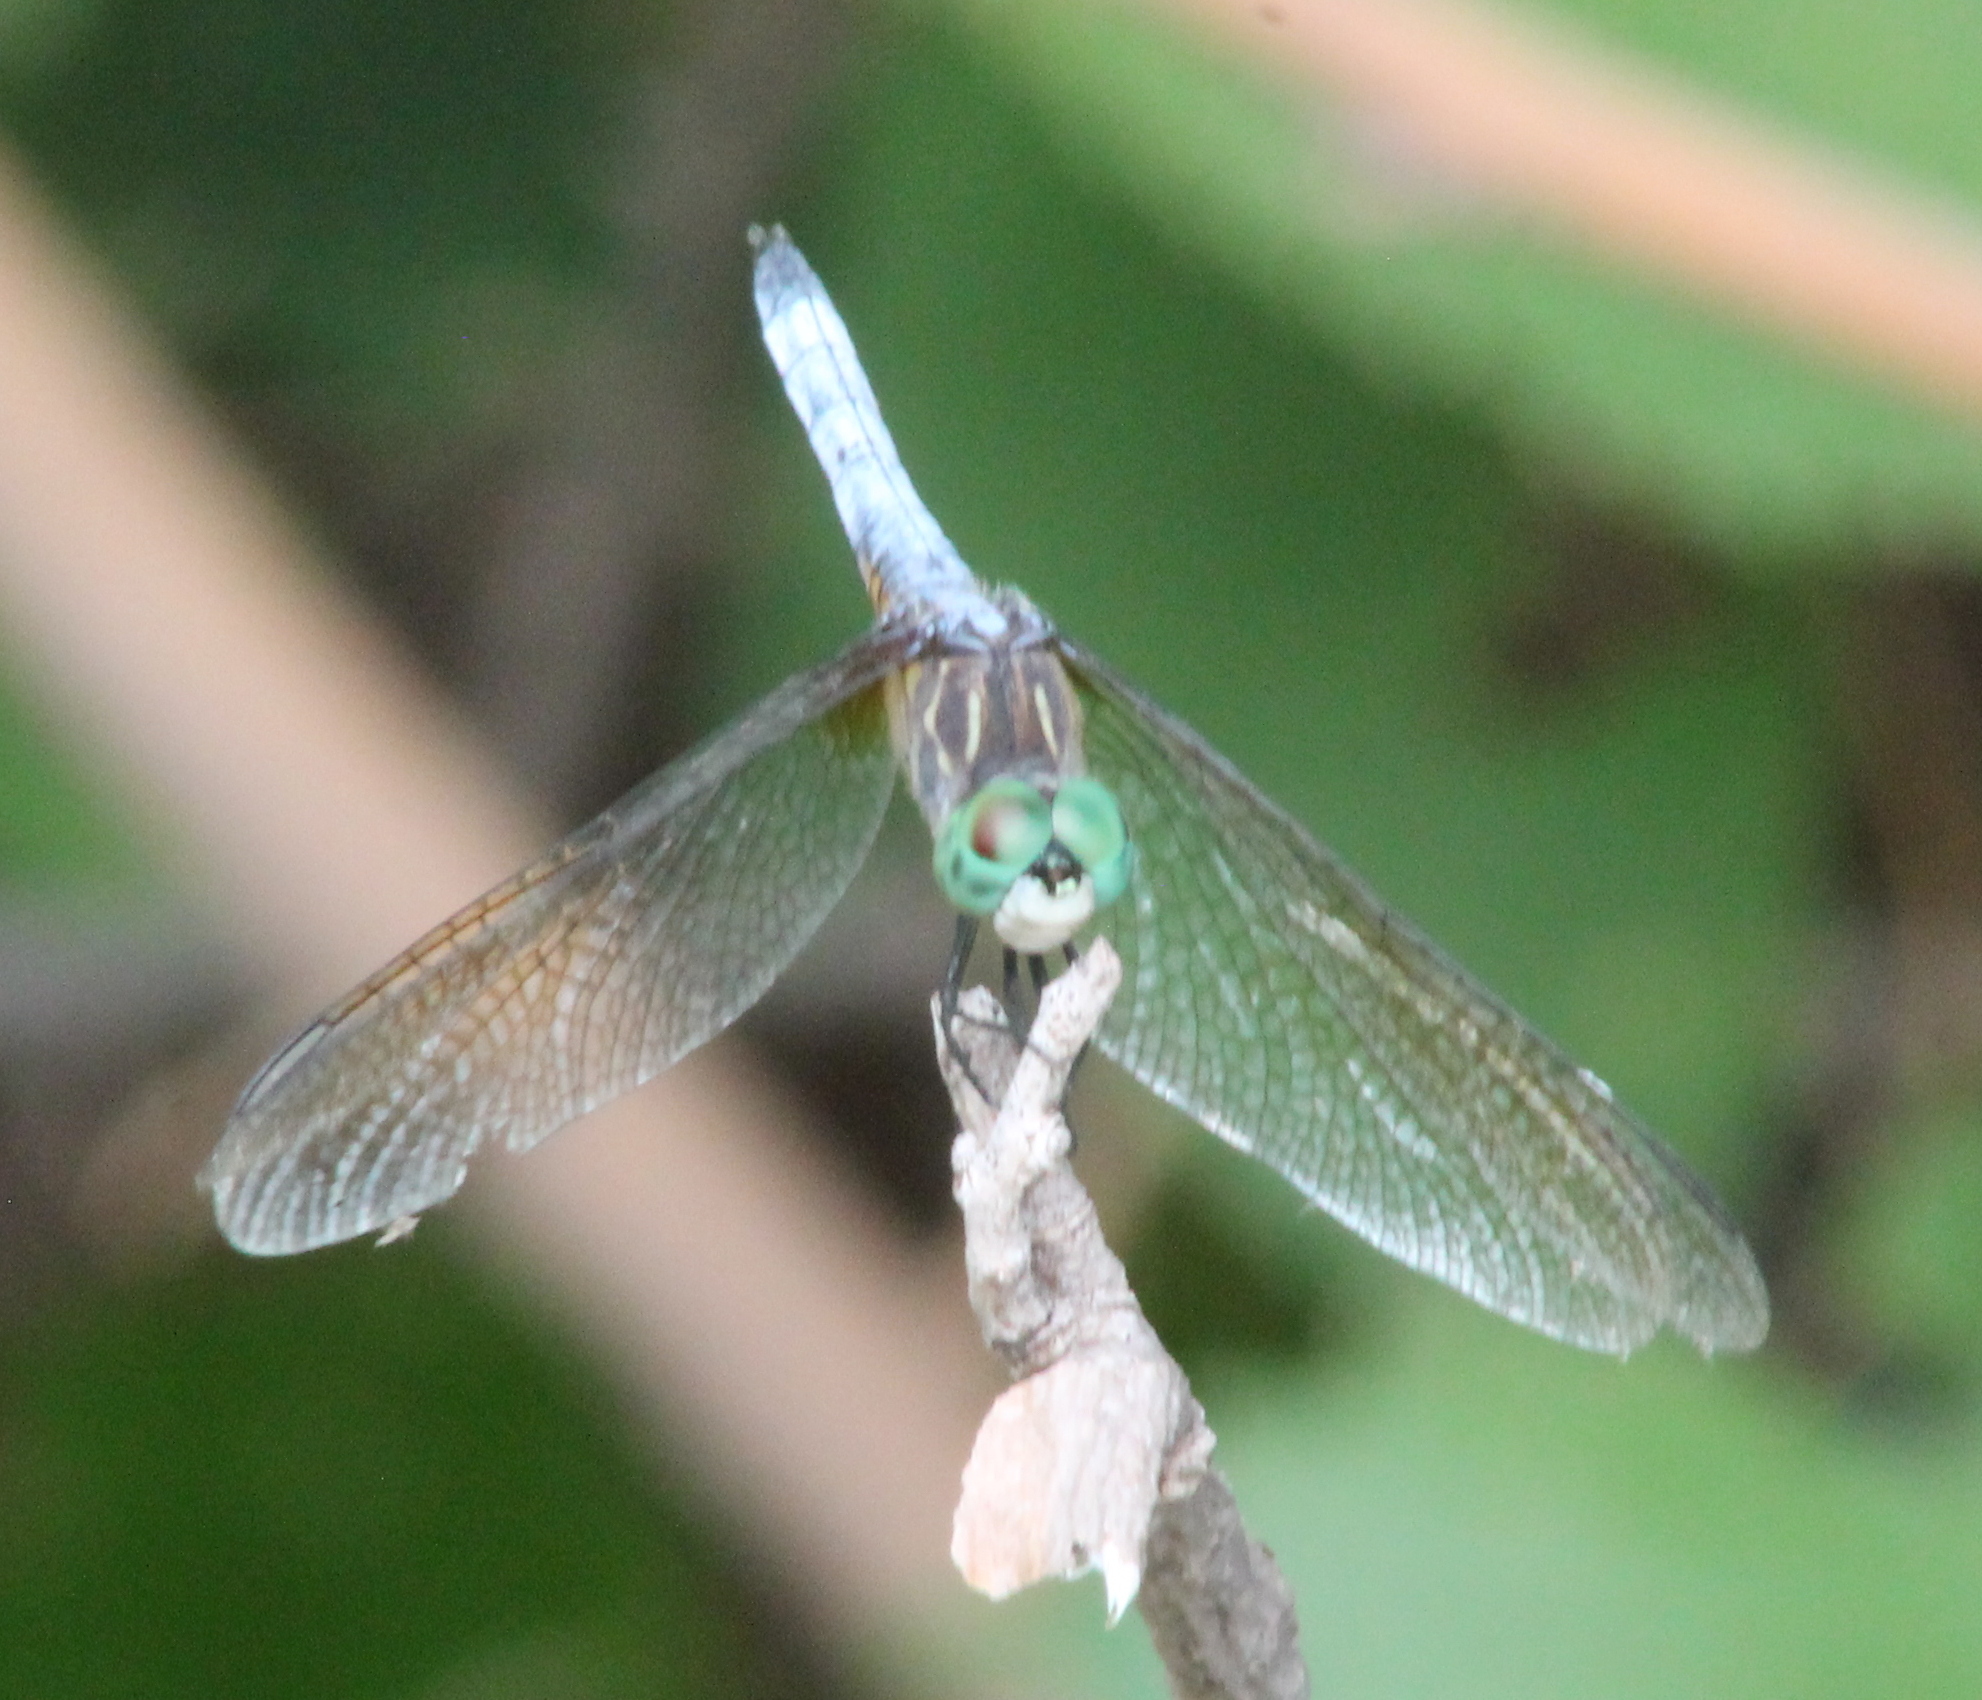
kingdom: Animalia
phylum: Arthropoda
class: Insecta
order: Odonata
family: Libellulidae
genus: Pachydiplax
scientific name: Pachydiplax longipennis
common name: Blue dasher
